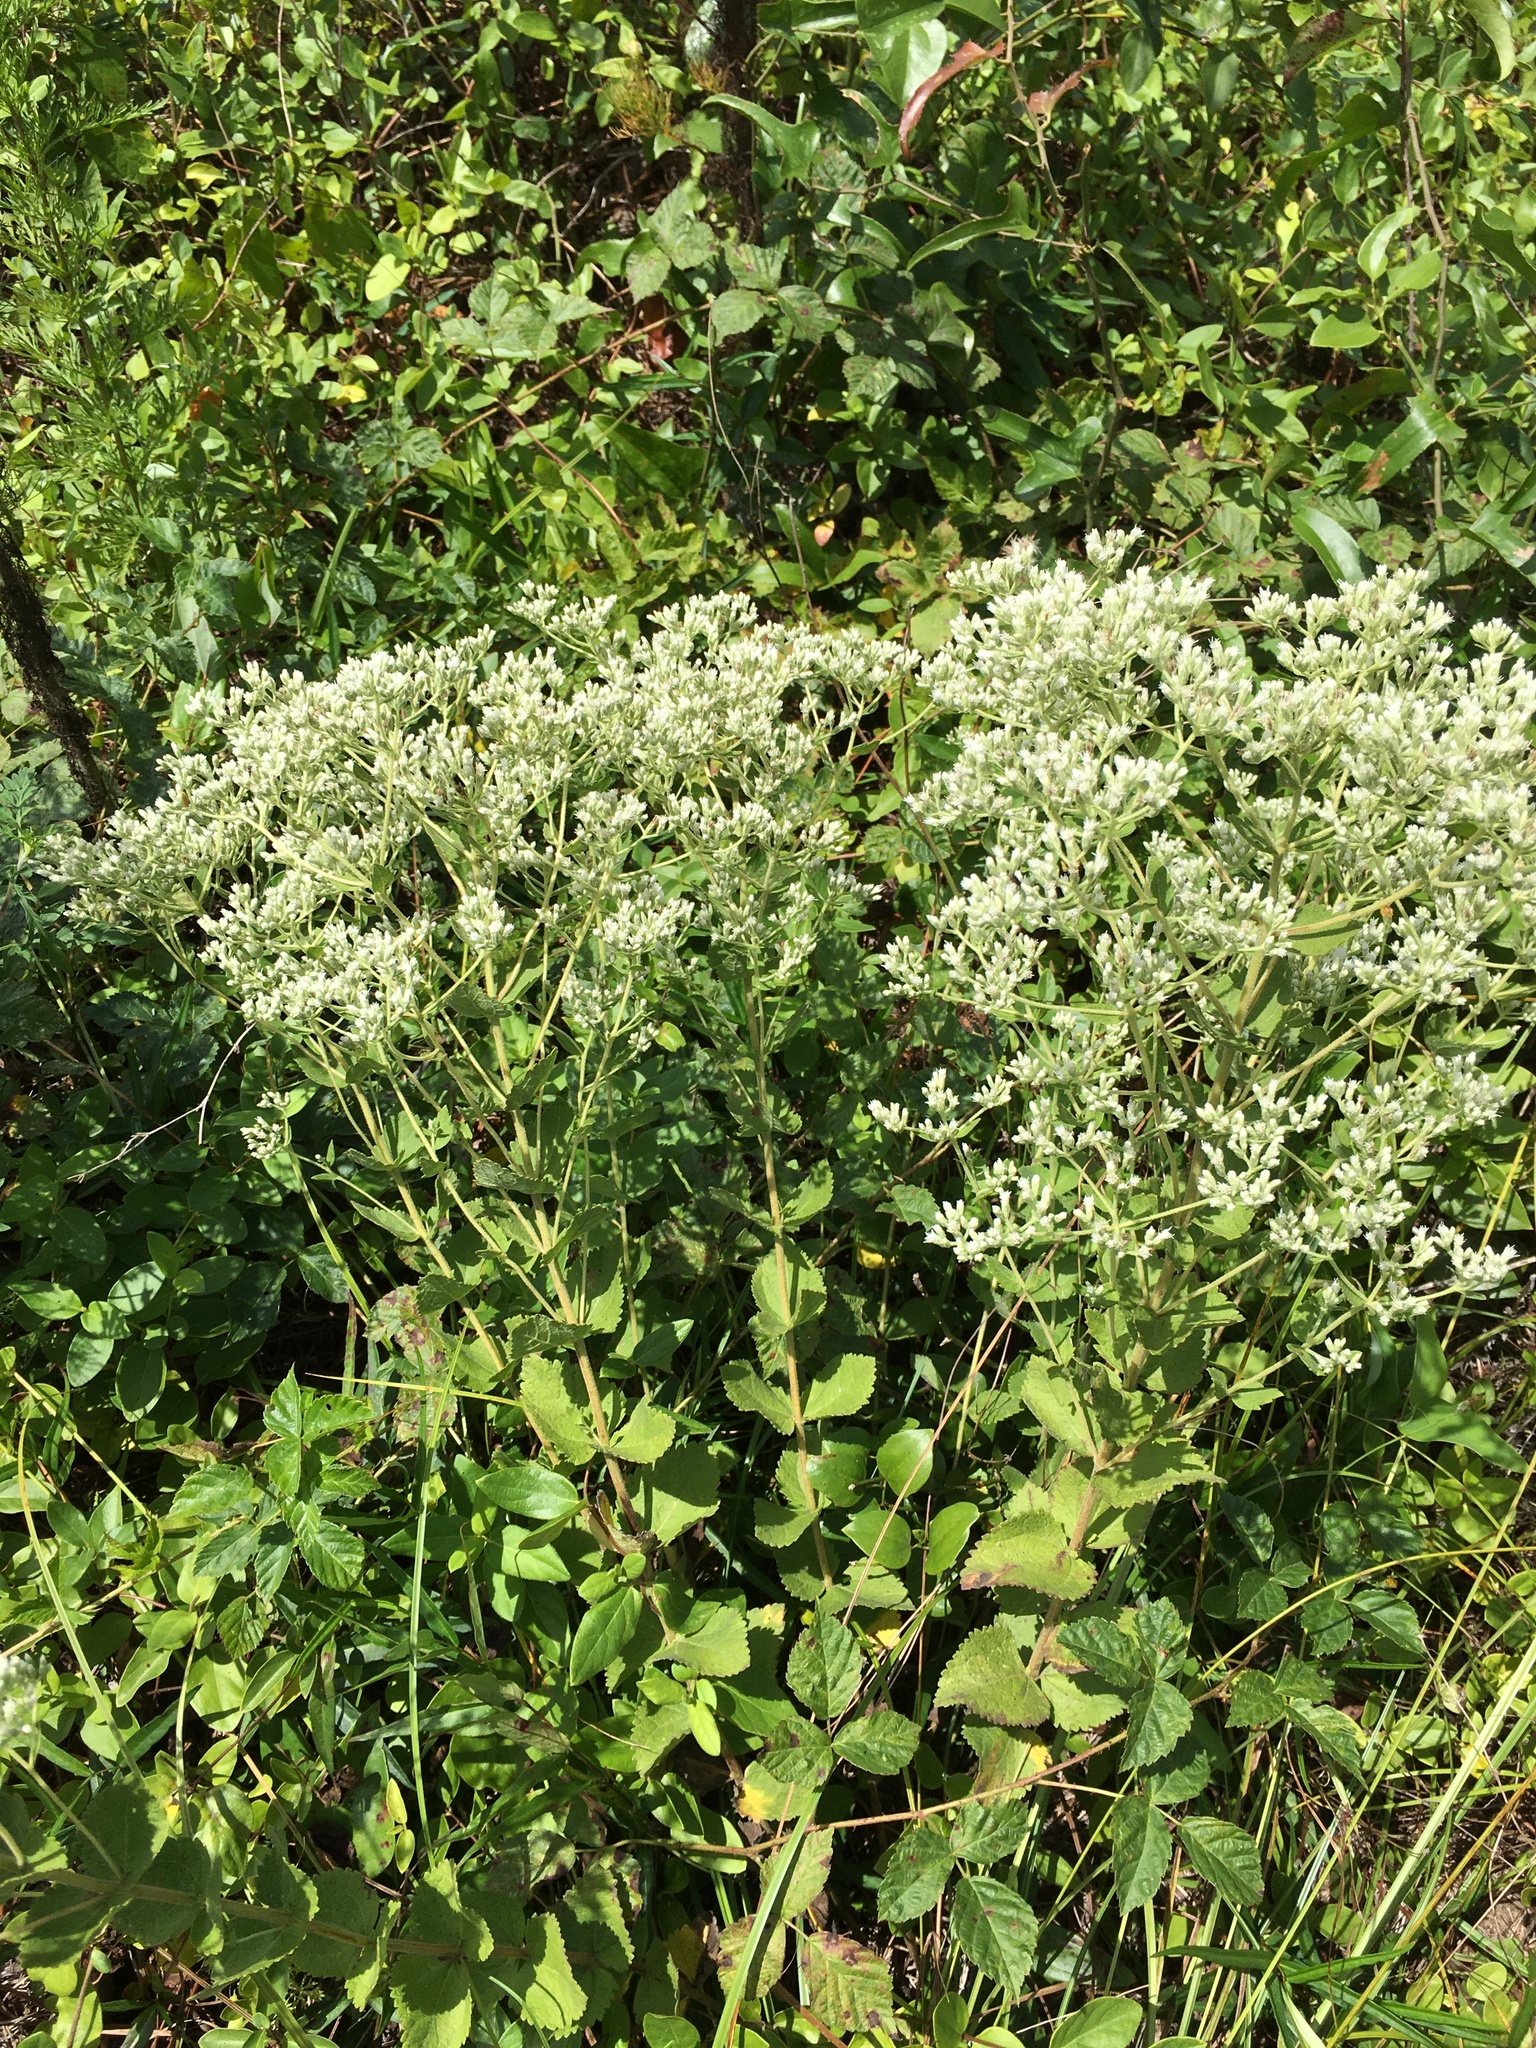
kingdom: Plantae
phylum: Tracheophyta
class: Magnoliopsida
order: Asterales
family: Asteraceae
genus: Eupatorium
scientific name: Eupatorium rotundifolium
